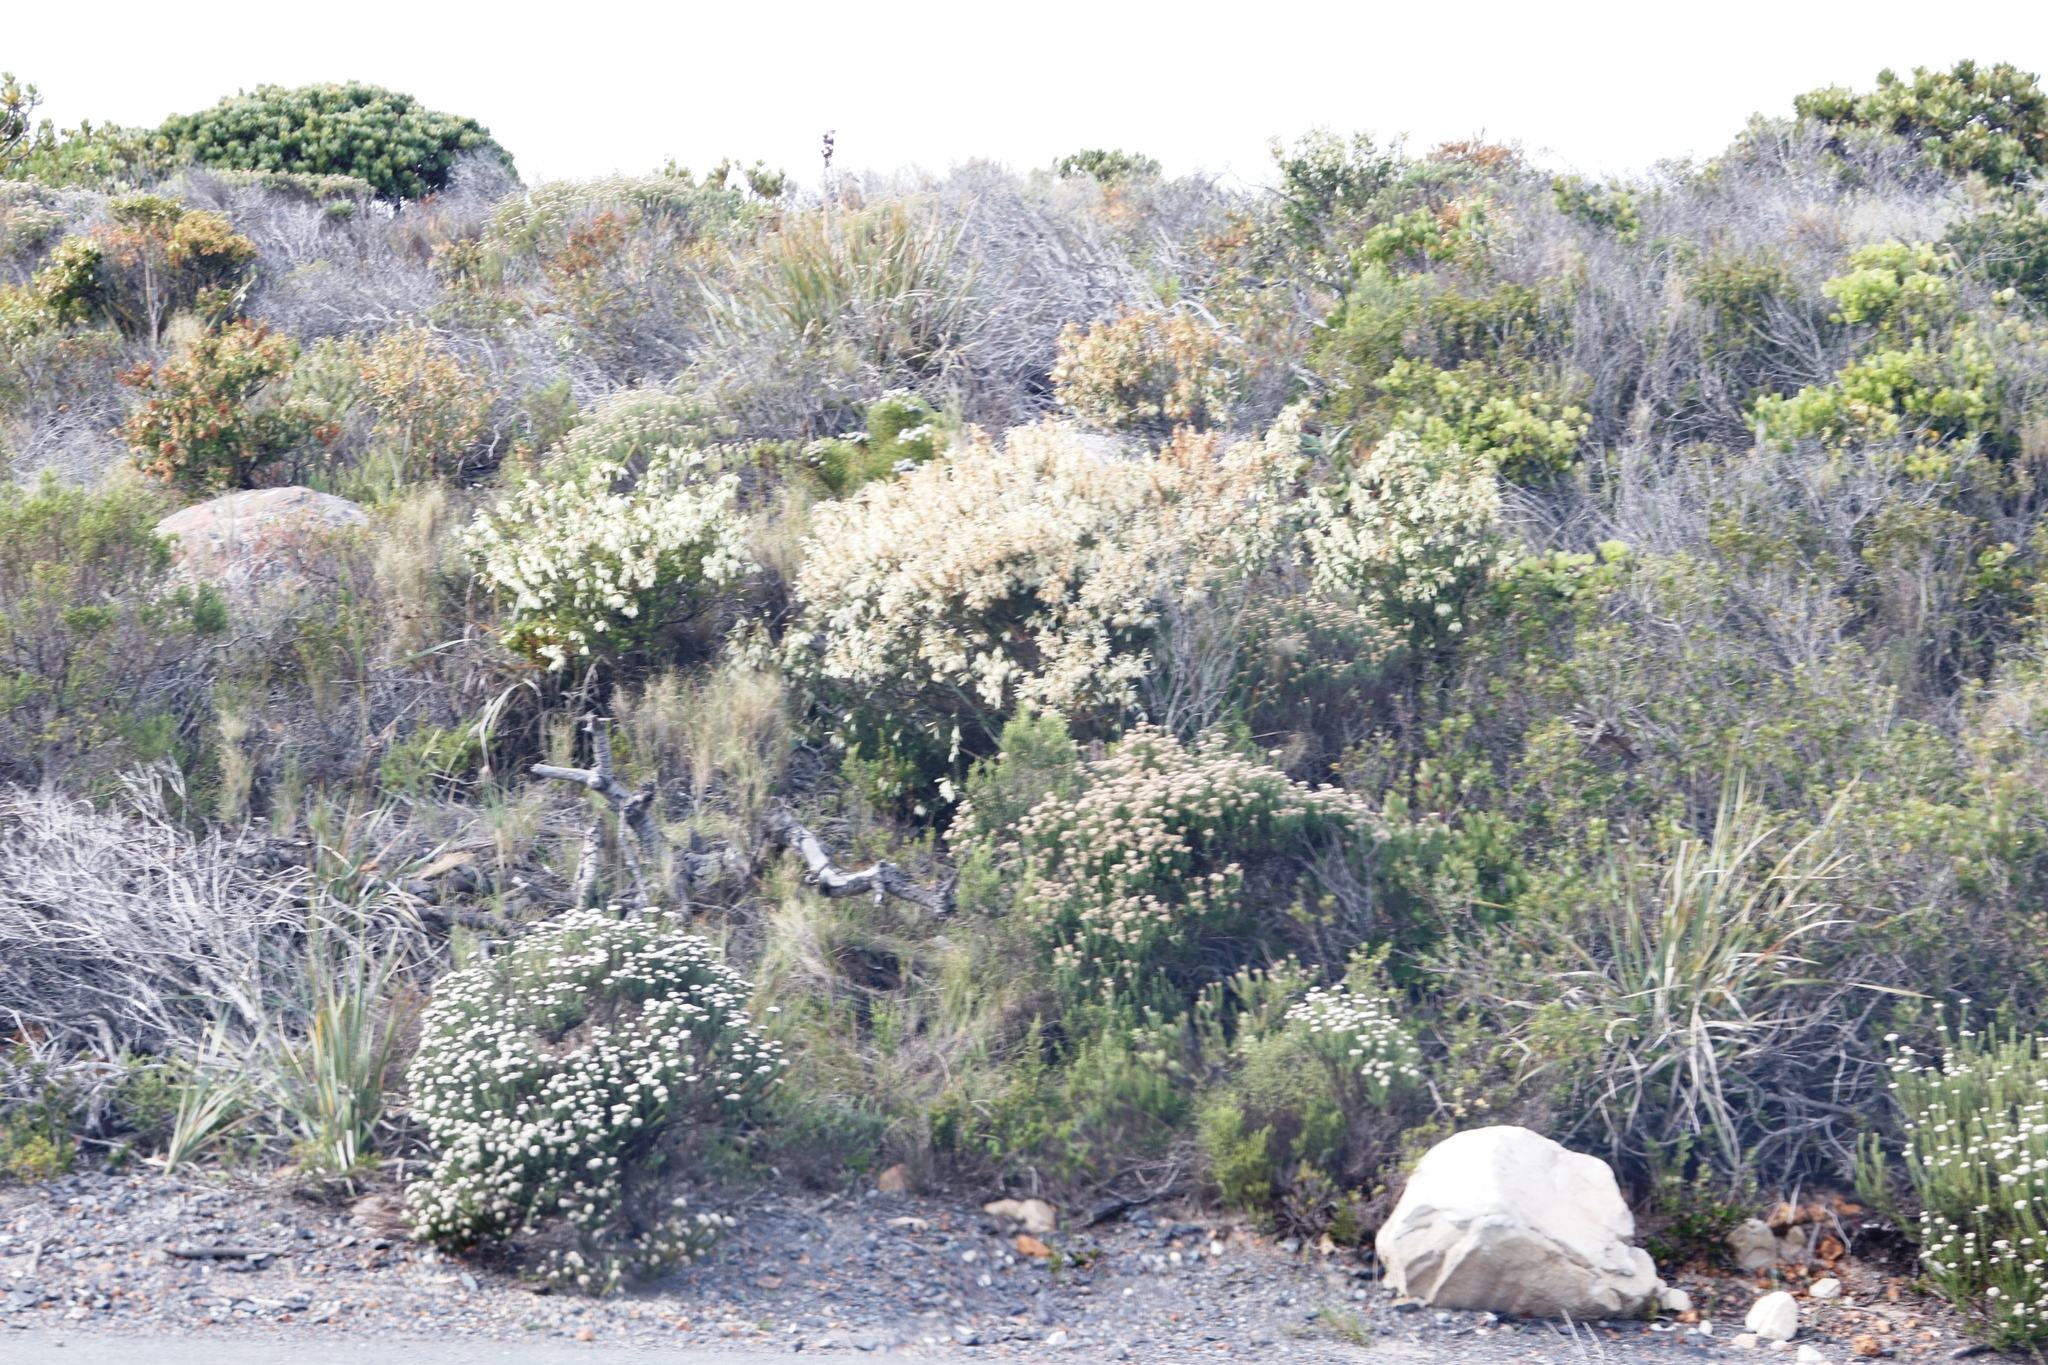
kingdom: Plantae
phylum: Tracheophyta
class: Magnoliopsida
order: Ericales
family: Ericaceae
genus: Erica
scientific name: Erica mammosa
